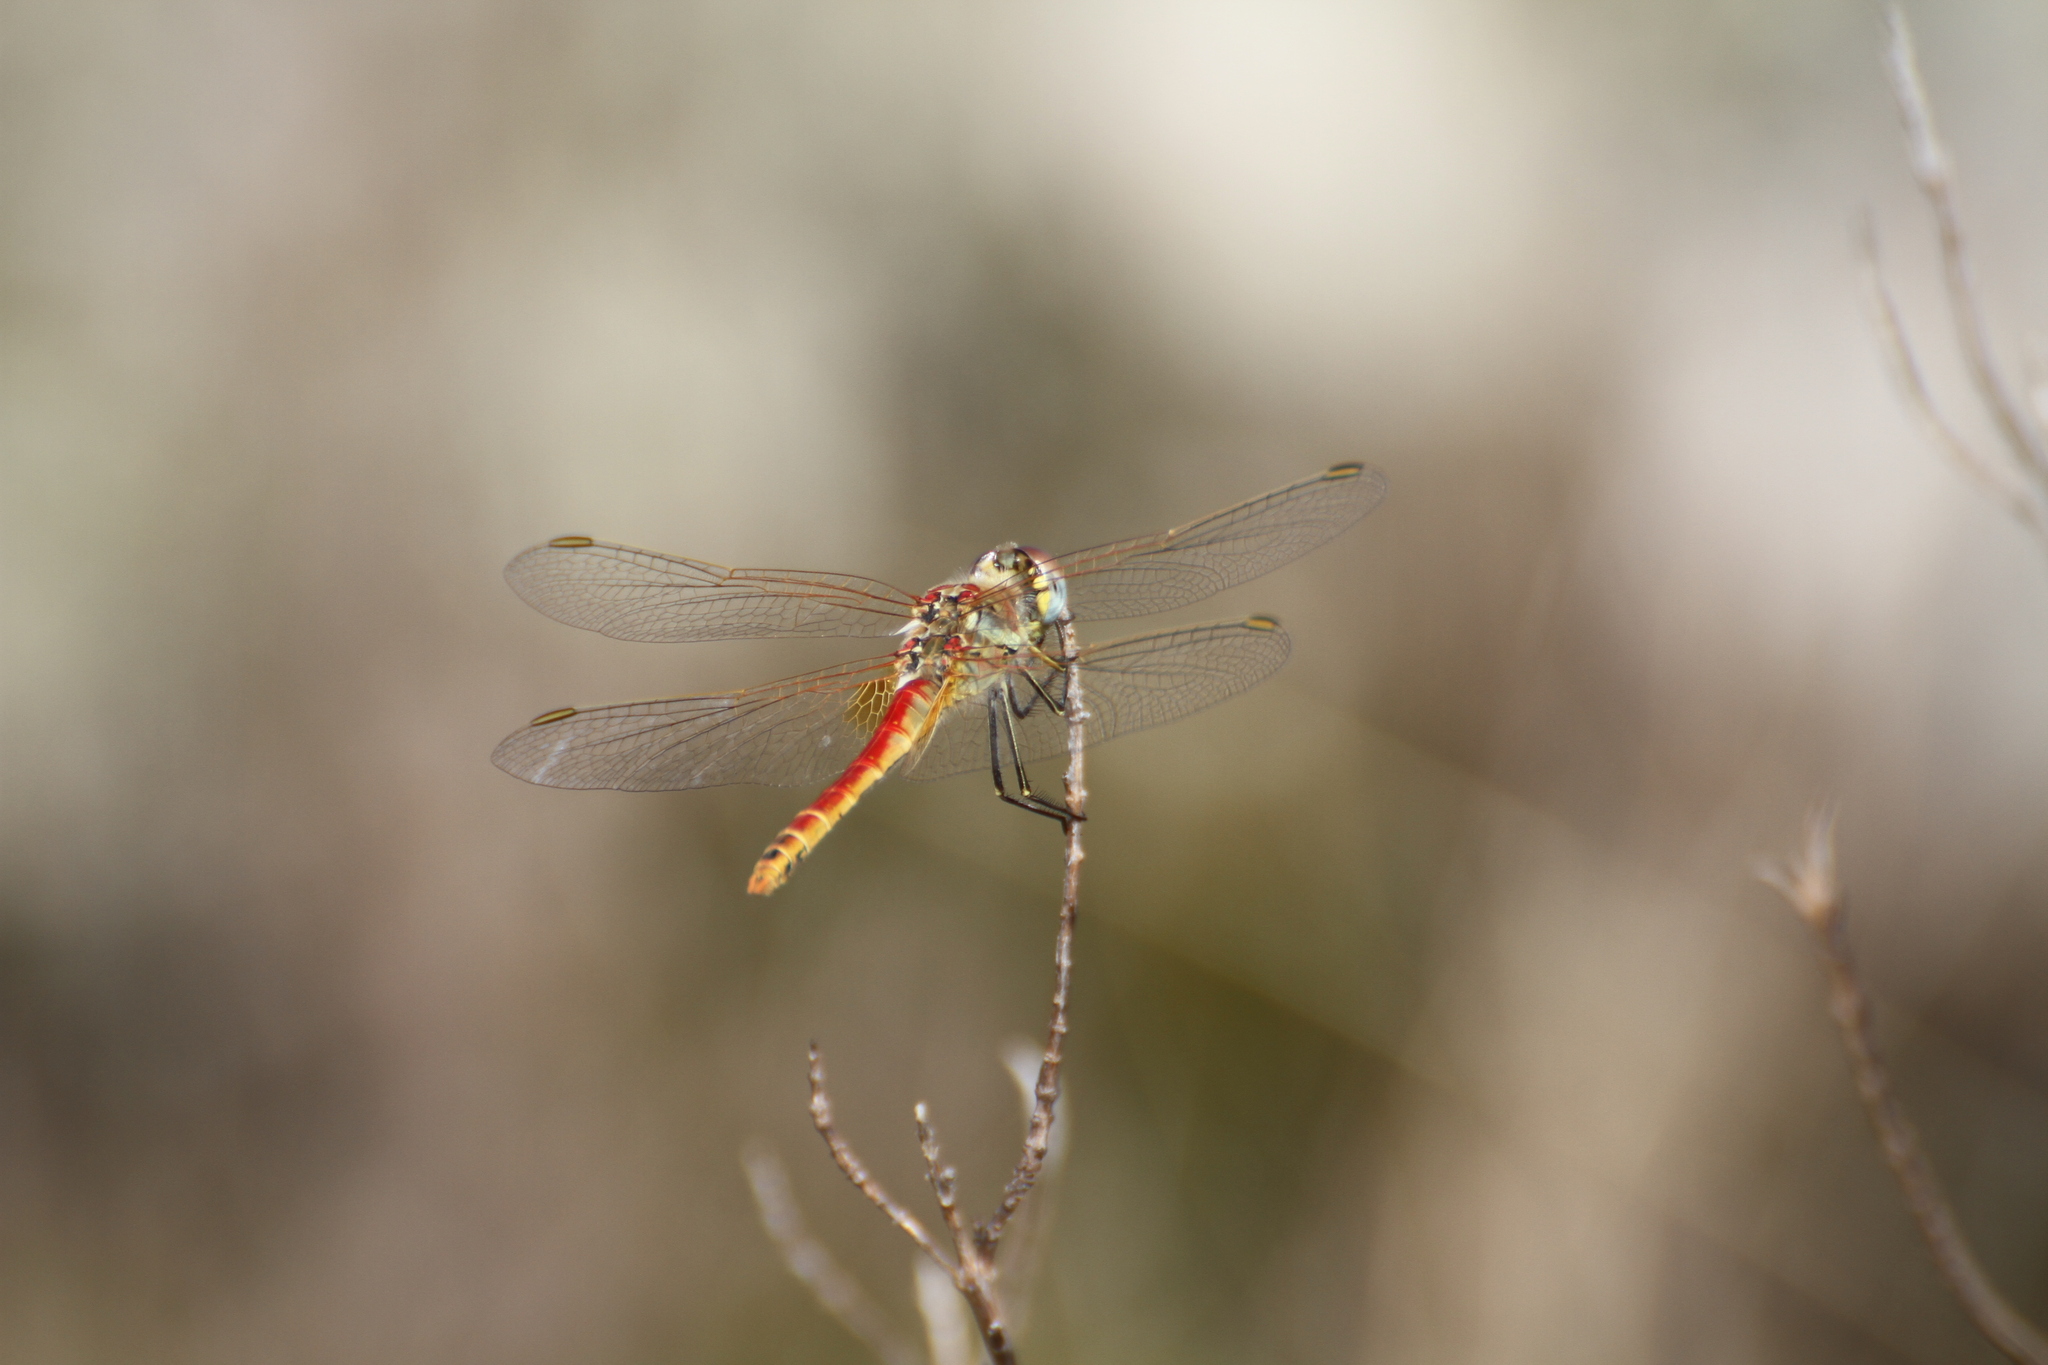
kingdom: Animalia
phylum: Arthropoda
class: Insecta
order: Odonata
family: Libellulidae
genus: Sympetrum
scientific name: Sympetrum fonscolombii
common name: Red-veined darter
